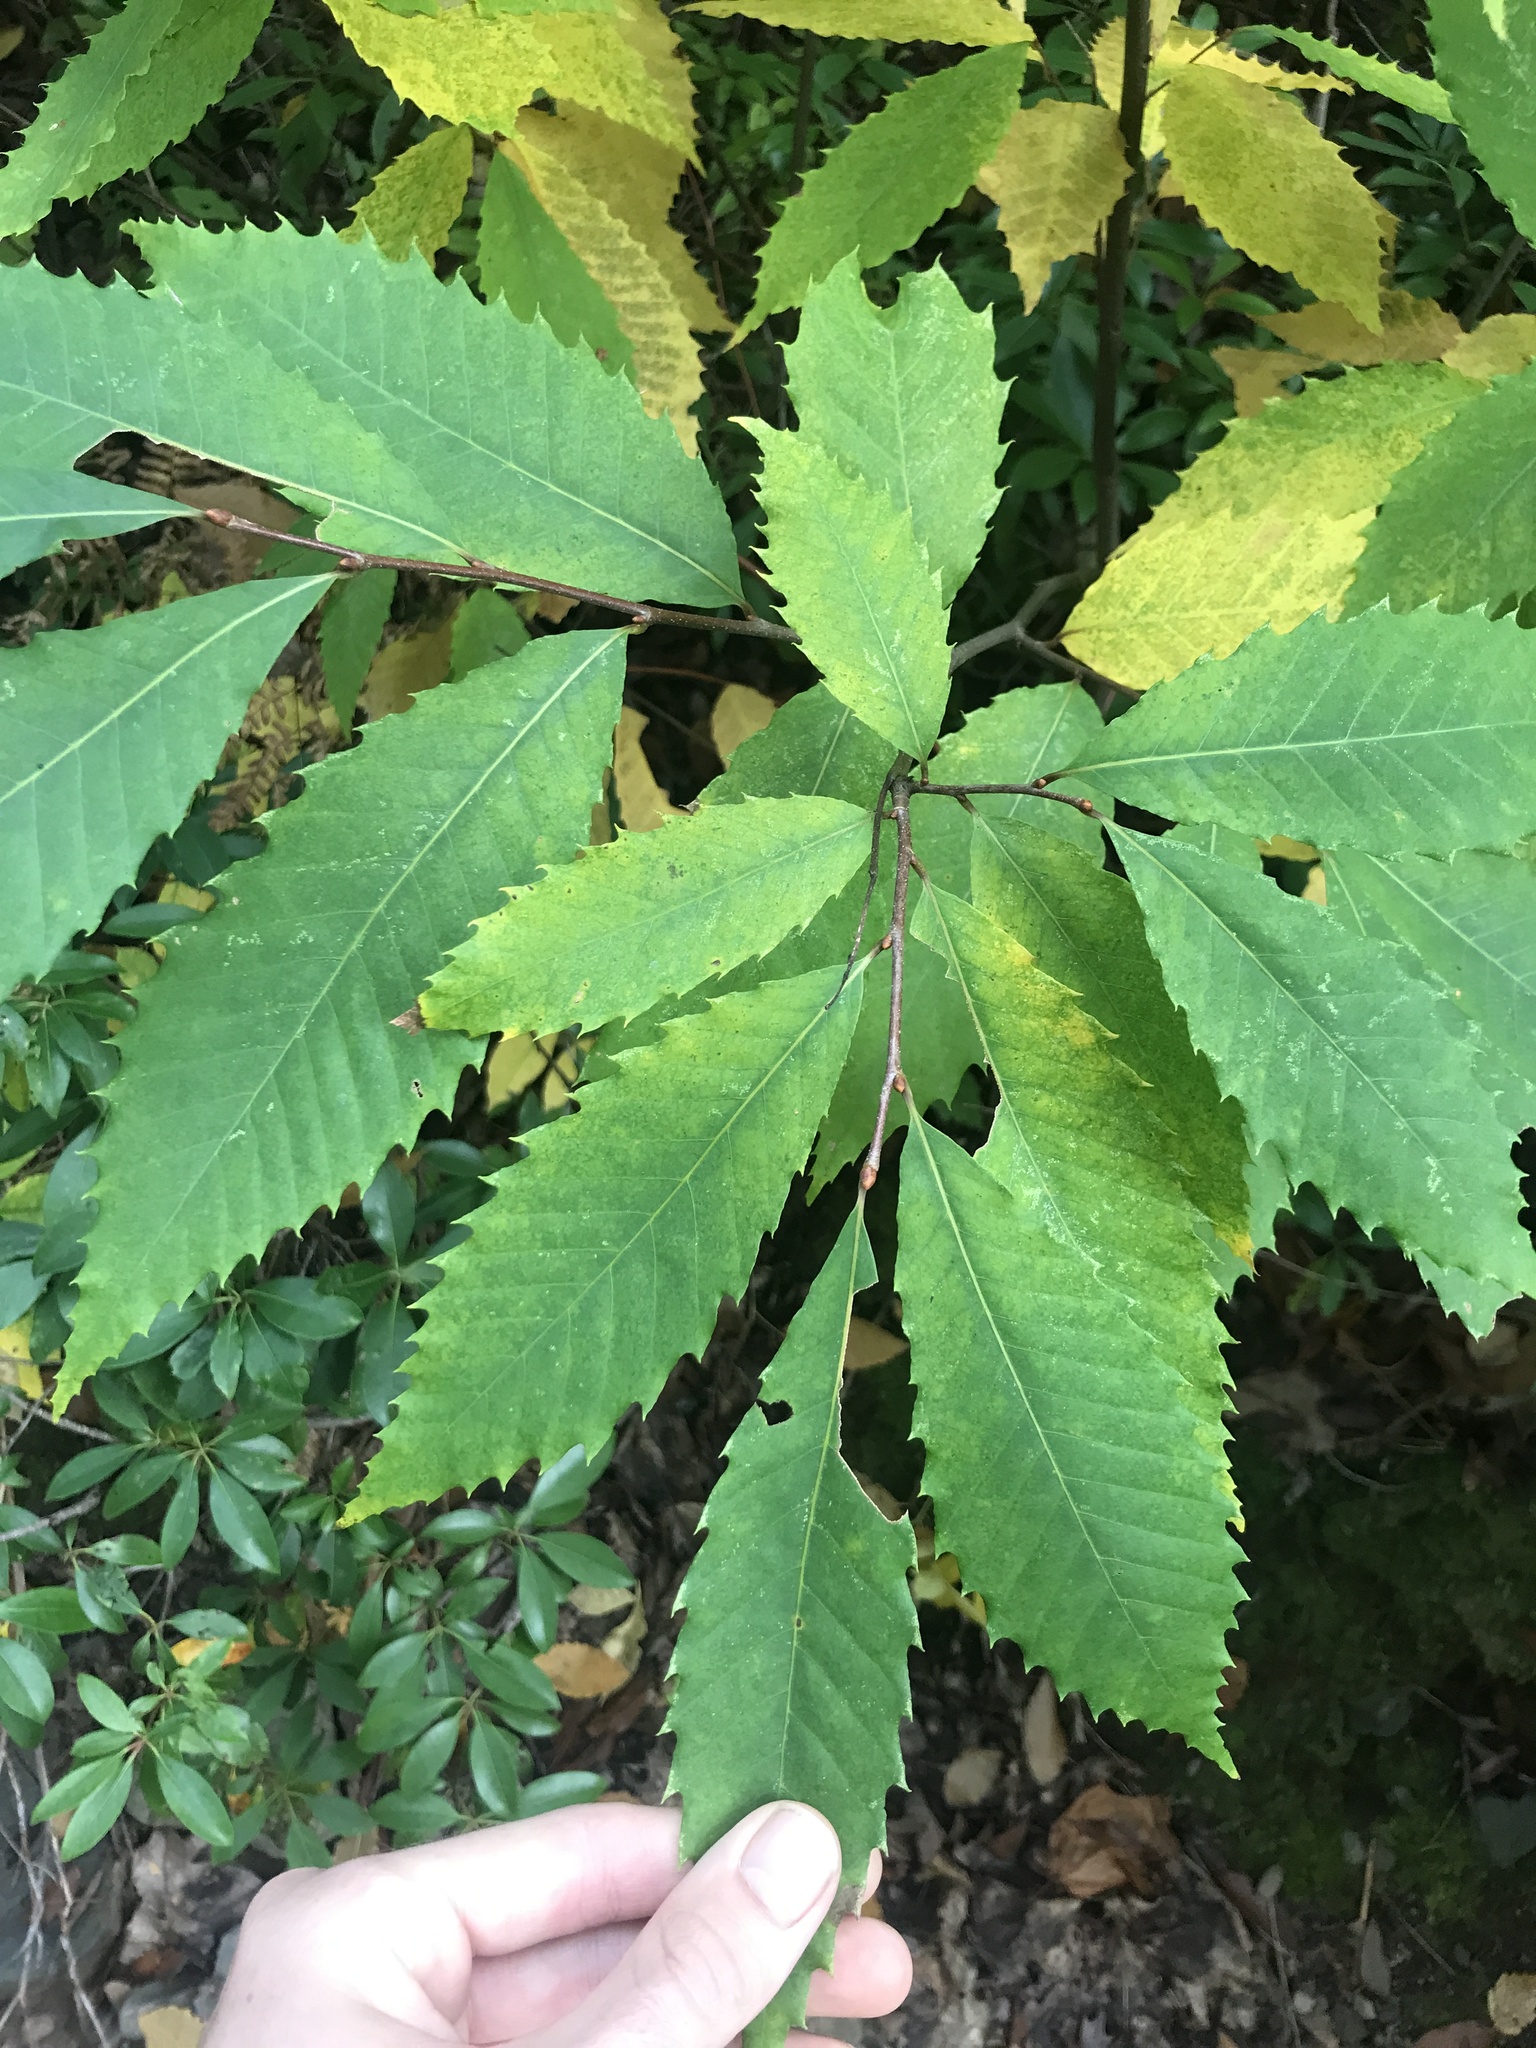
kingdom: Plantae
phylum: Tracheophyta
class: Magnoliopsida
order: Fagales
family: Fagaceae
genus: Castanea
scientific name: Castanea dentata
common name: American chestnut
